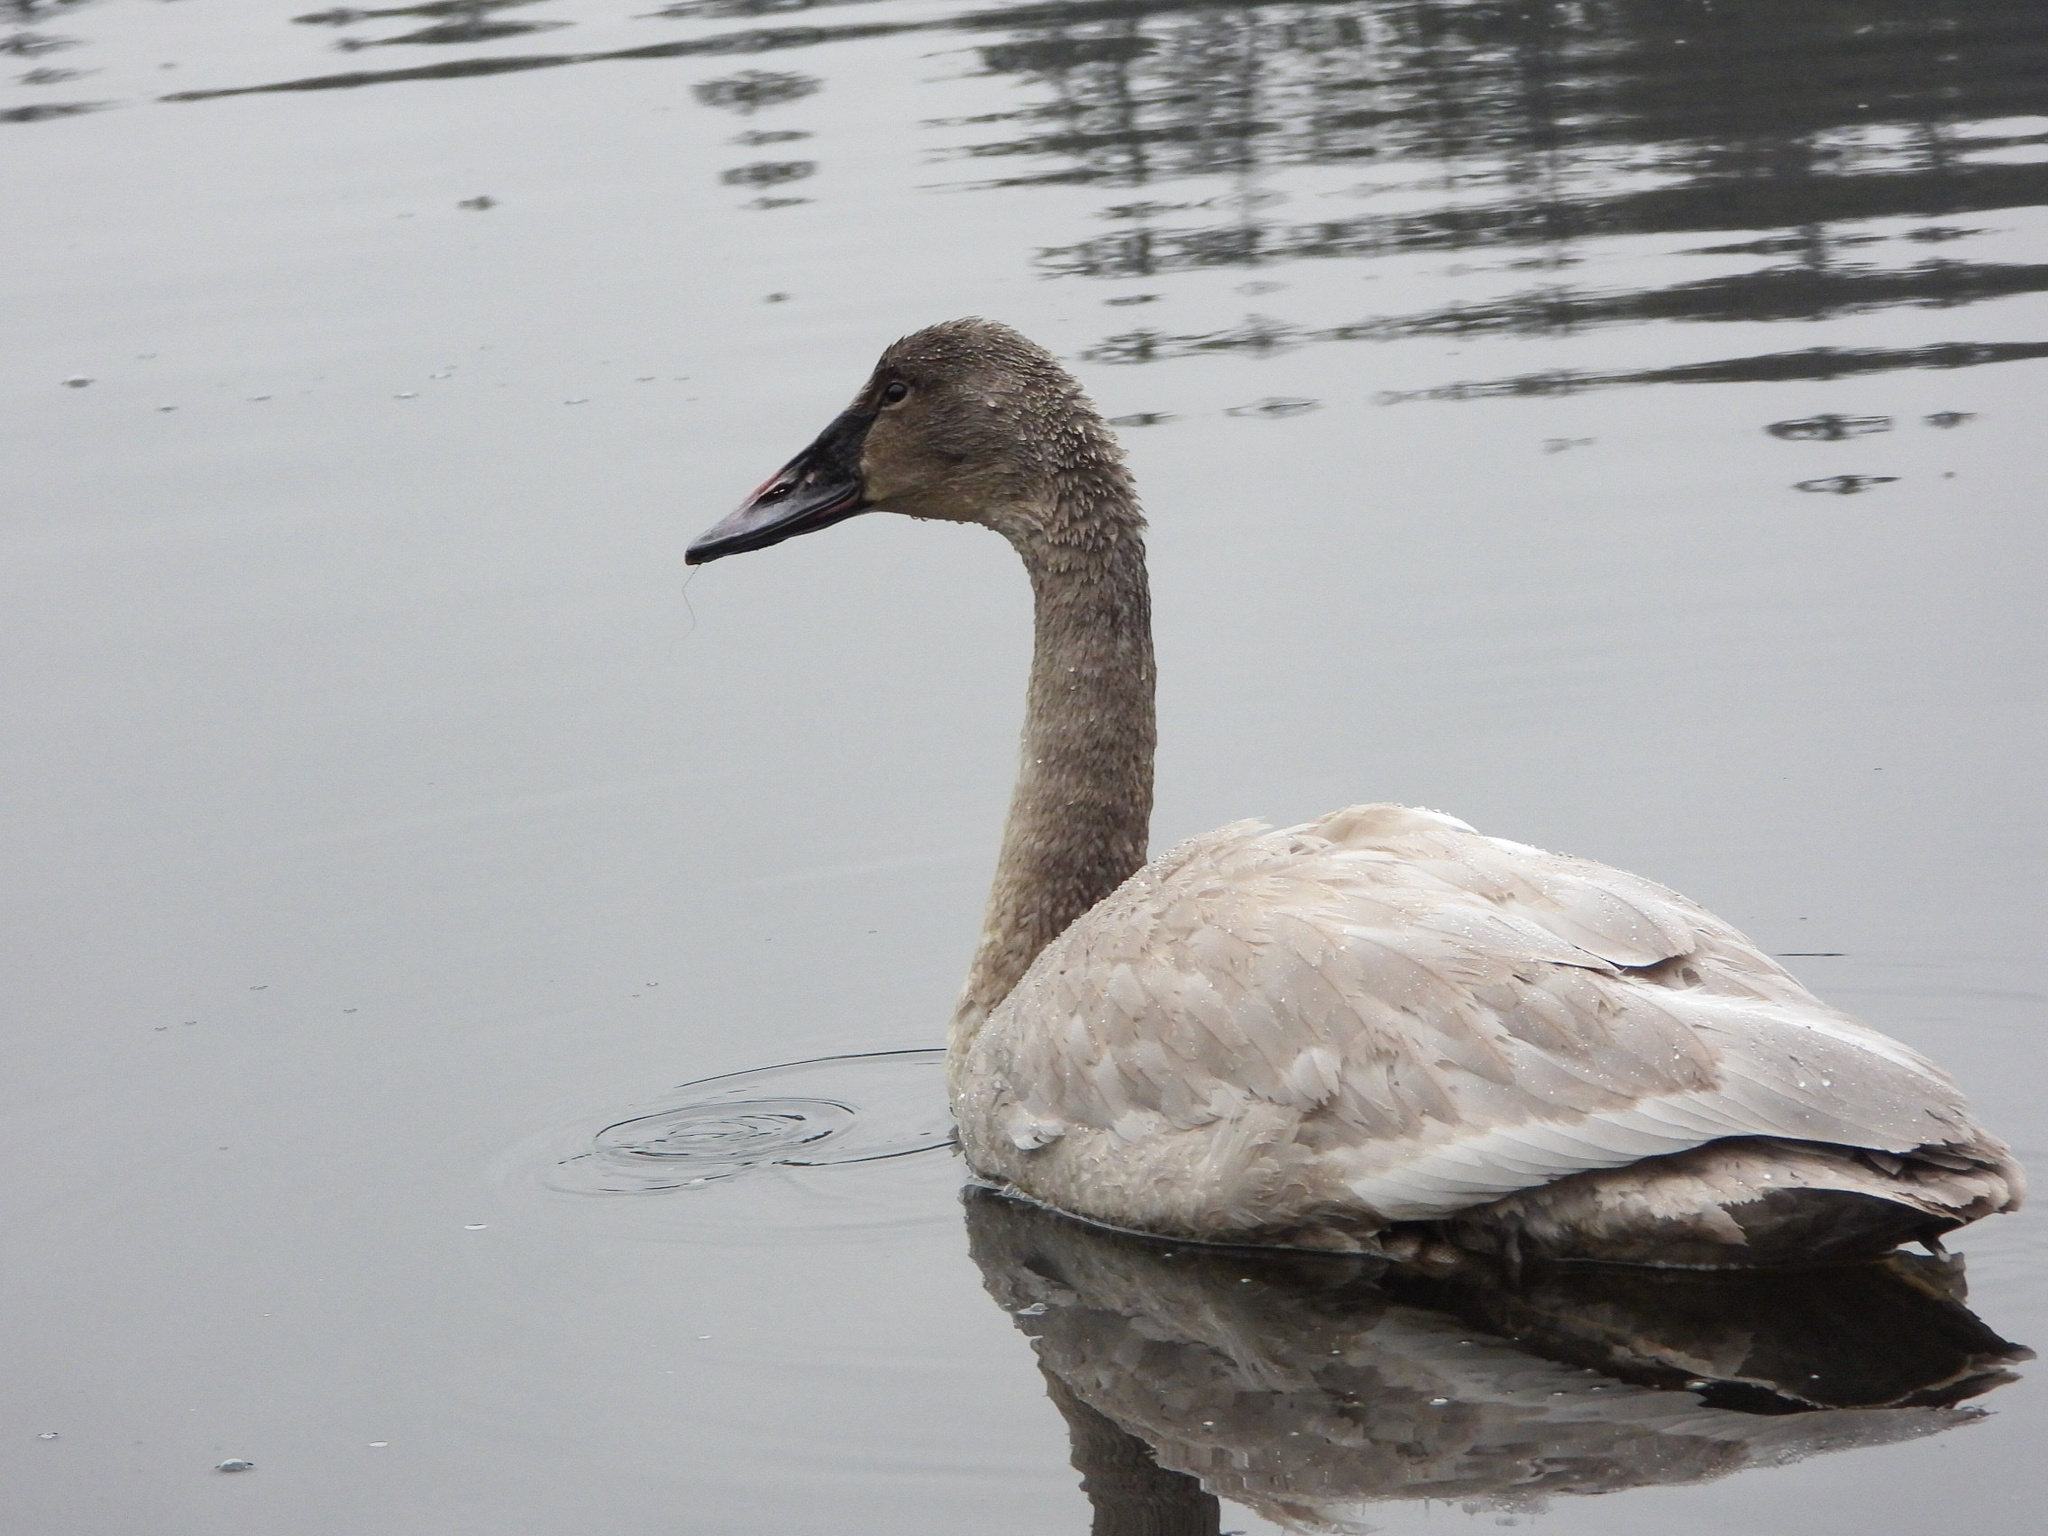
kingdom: Animalia
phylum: Chordata
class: Aves
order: Anseriformes
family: Anatidae
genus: Cygnus
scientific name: Cygnus buccinator
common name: Trumpeter swan
